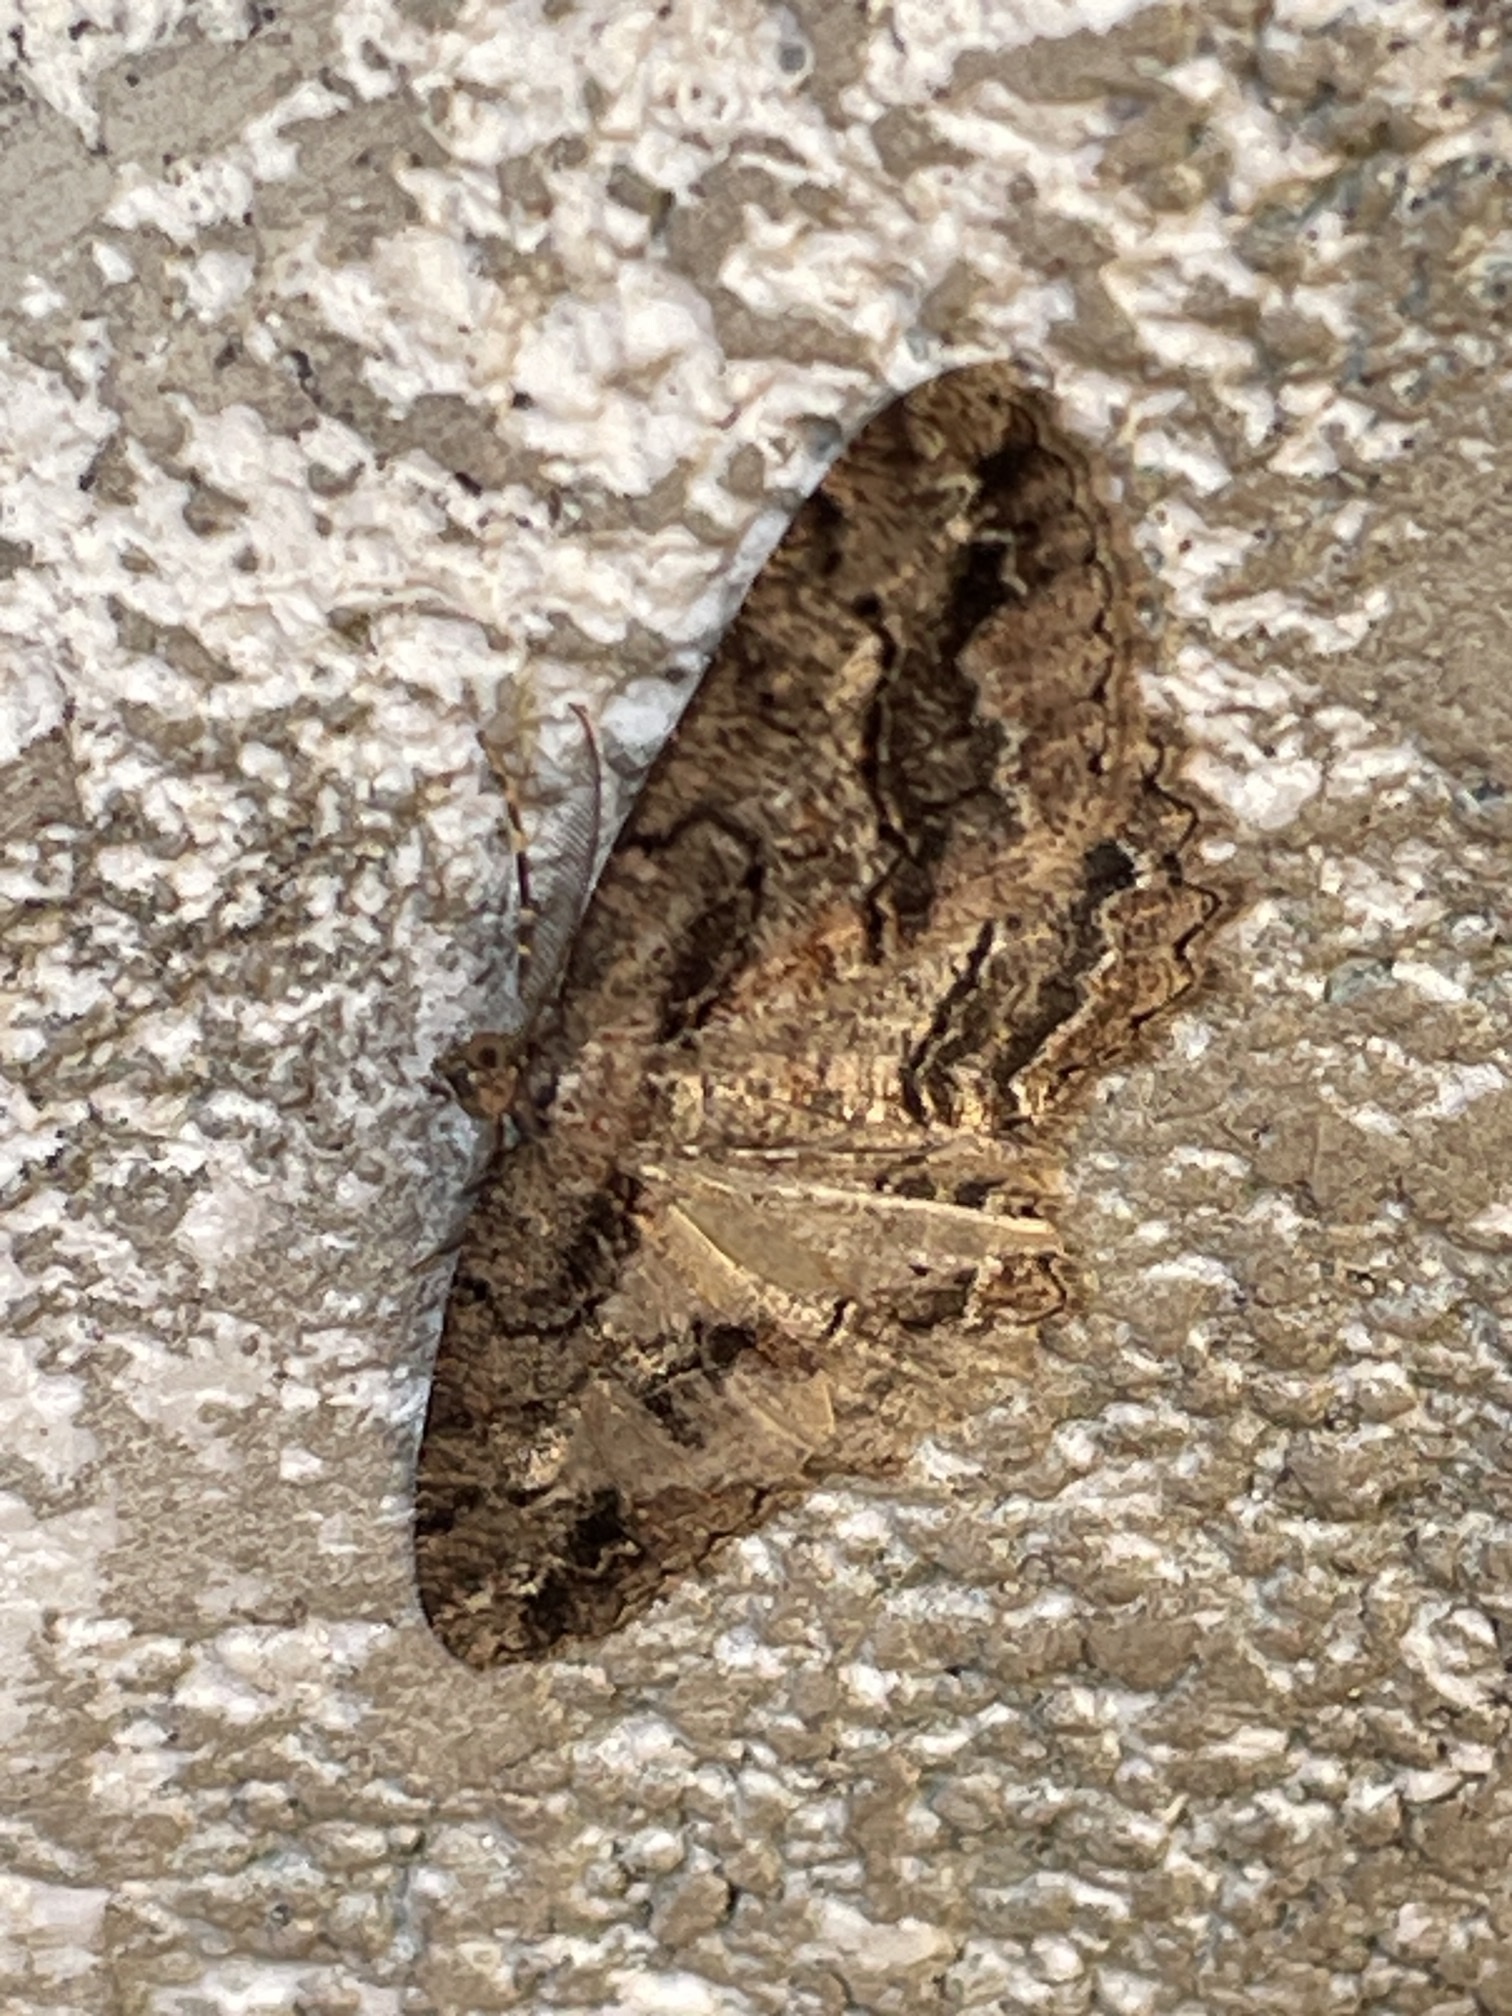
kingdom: Animalia
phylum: Arthropoda
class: Insecta
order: Lepidoptera
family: Geometridae
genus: Neoalcis
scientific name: Neoalcis californiaria
